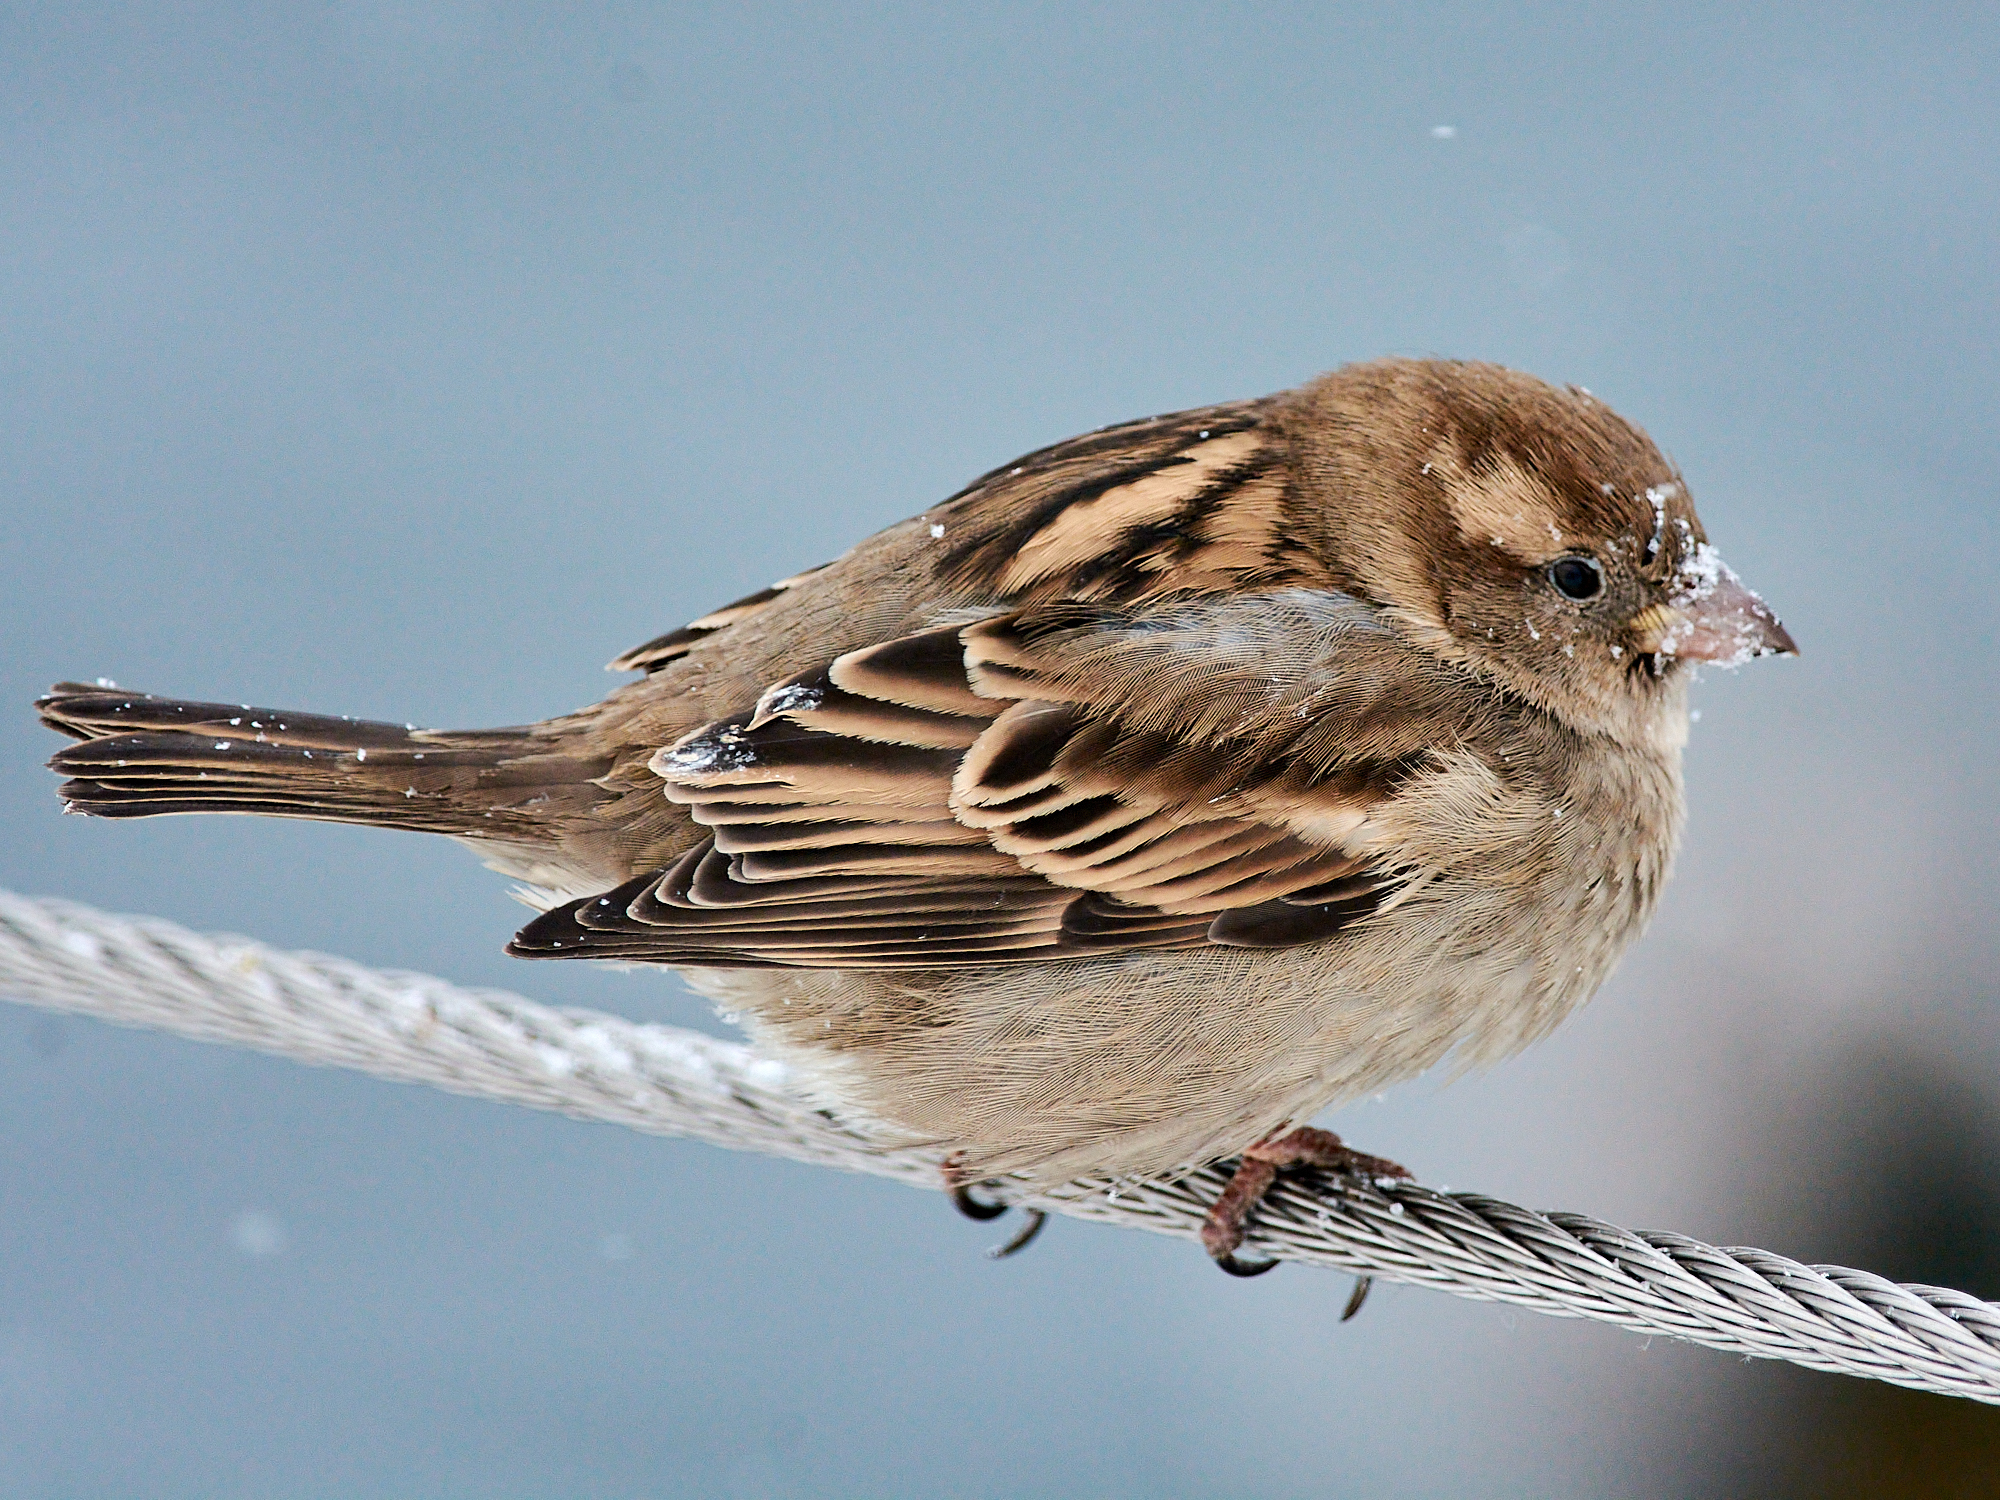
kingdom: Animalia
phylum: Chordata
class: Aves
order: Passeriformes
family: Passeridae
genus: Passer
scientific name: Passer domesticus
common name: House sparrow
